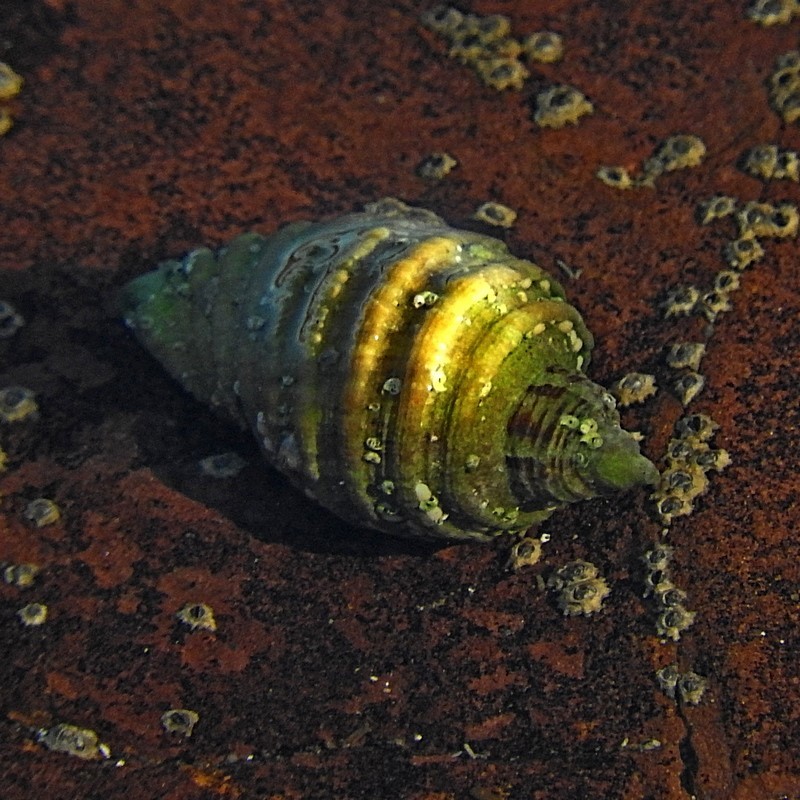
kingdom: Animalia
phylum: Mollusca
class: Gastropoda
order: Neogastropoda
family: Muricidae
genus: Dicathais
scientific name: Dicathais orbita
